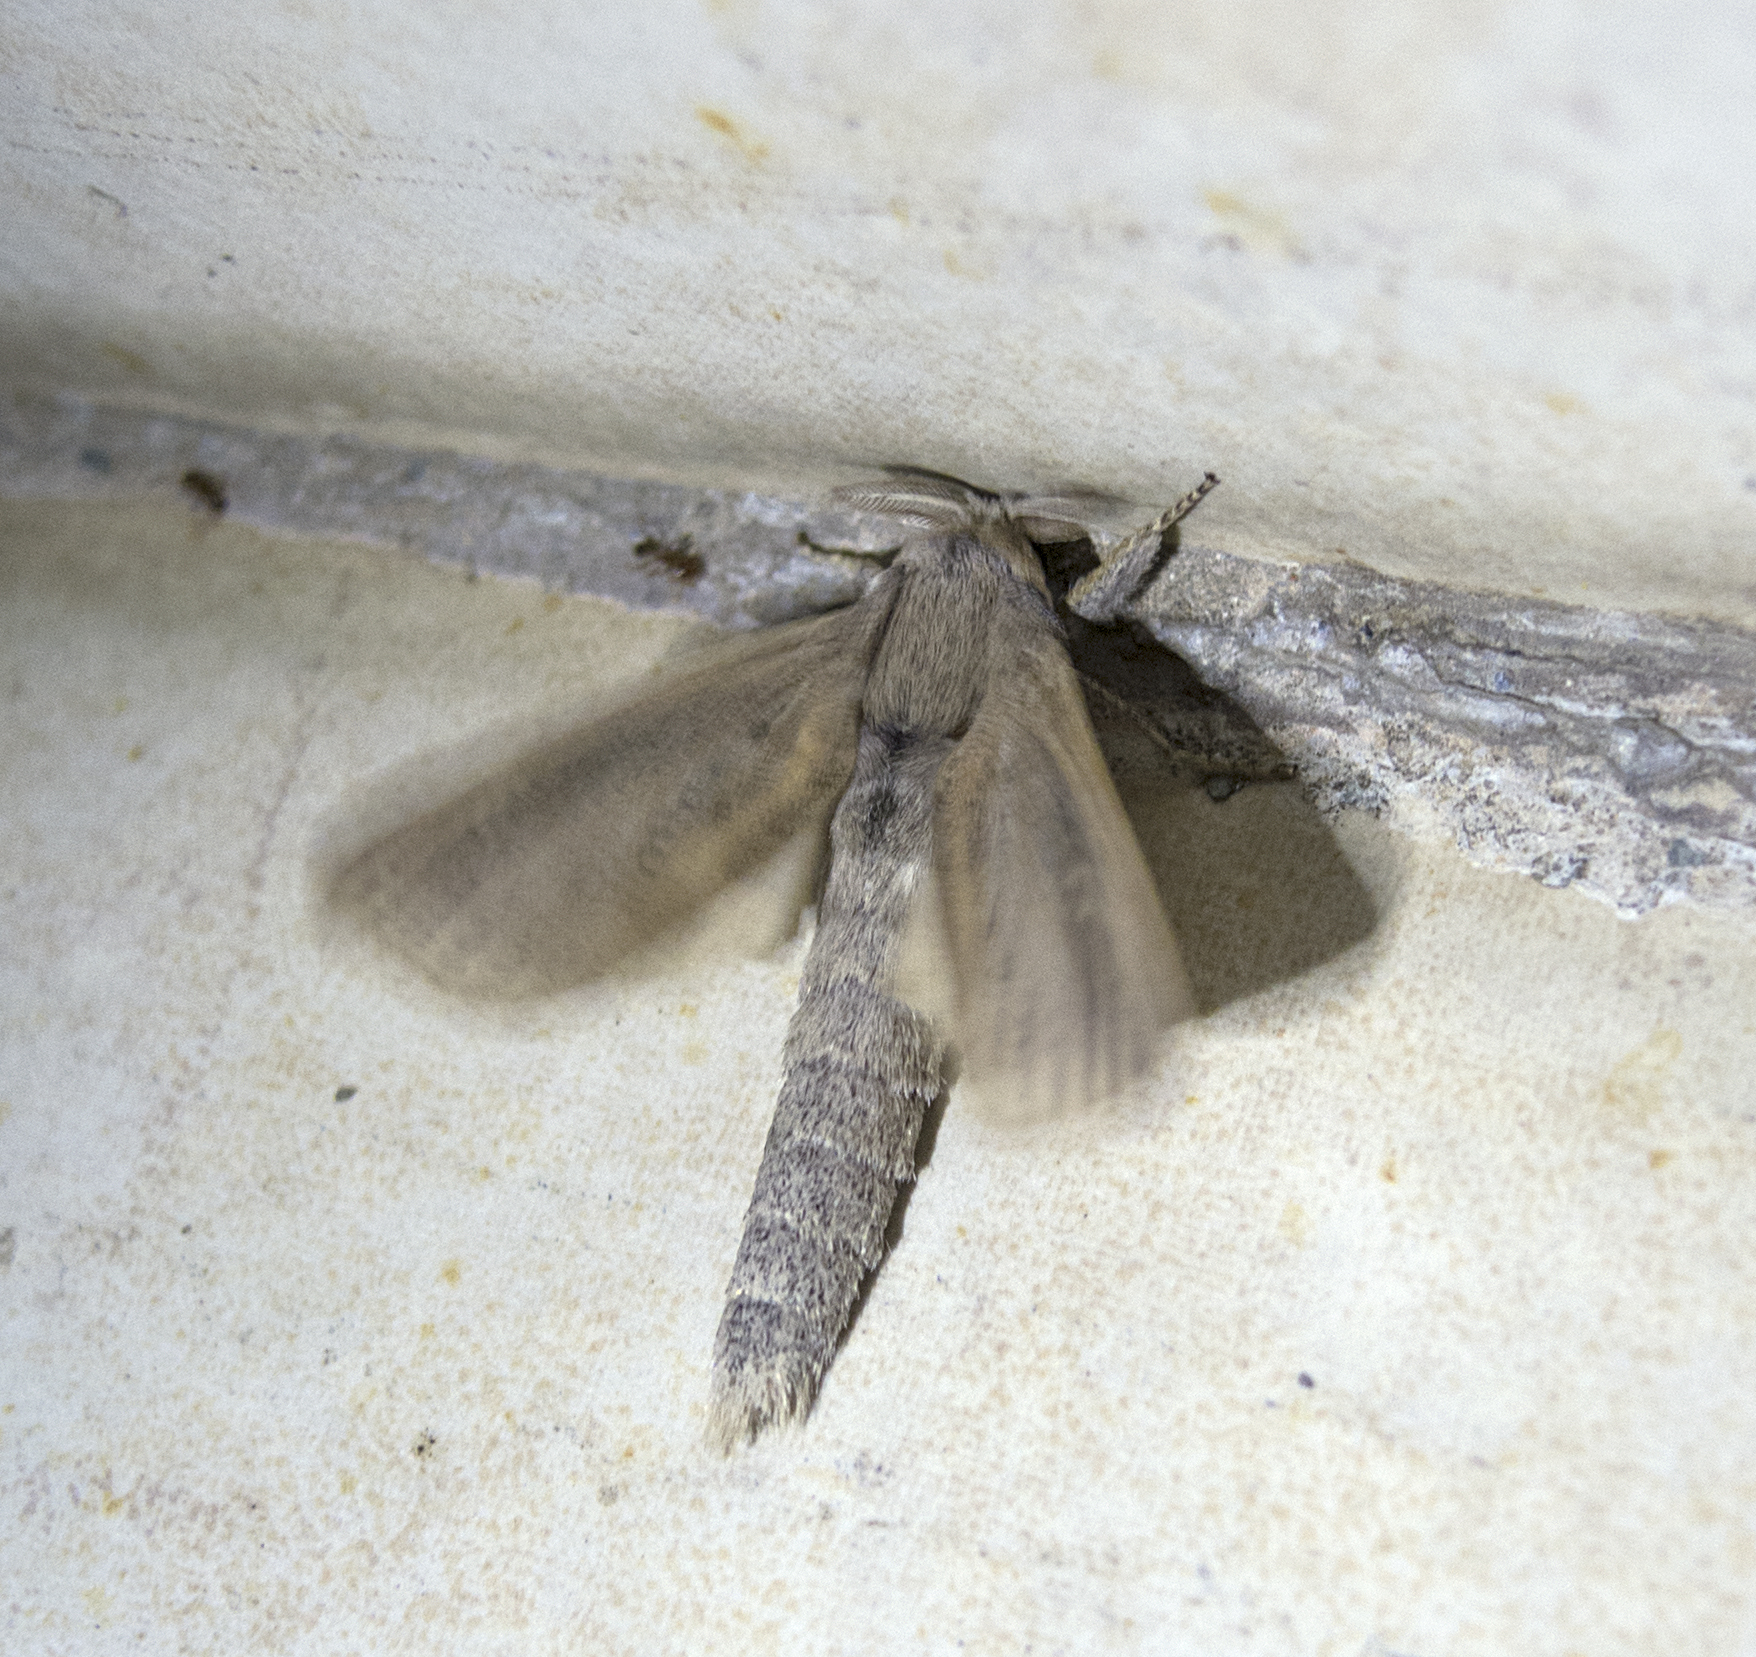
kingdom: Animalia
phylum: Arthropoda
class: Insecta
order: Lepidoptera
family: Cossidae
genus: Phragmataecia
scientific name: Phragmataecia castaneae
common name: Reed leopard
